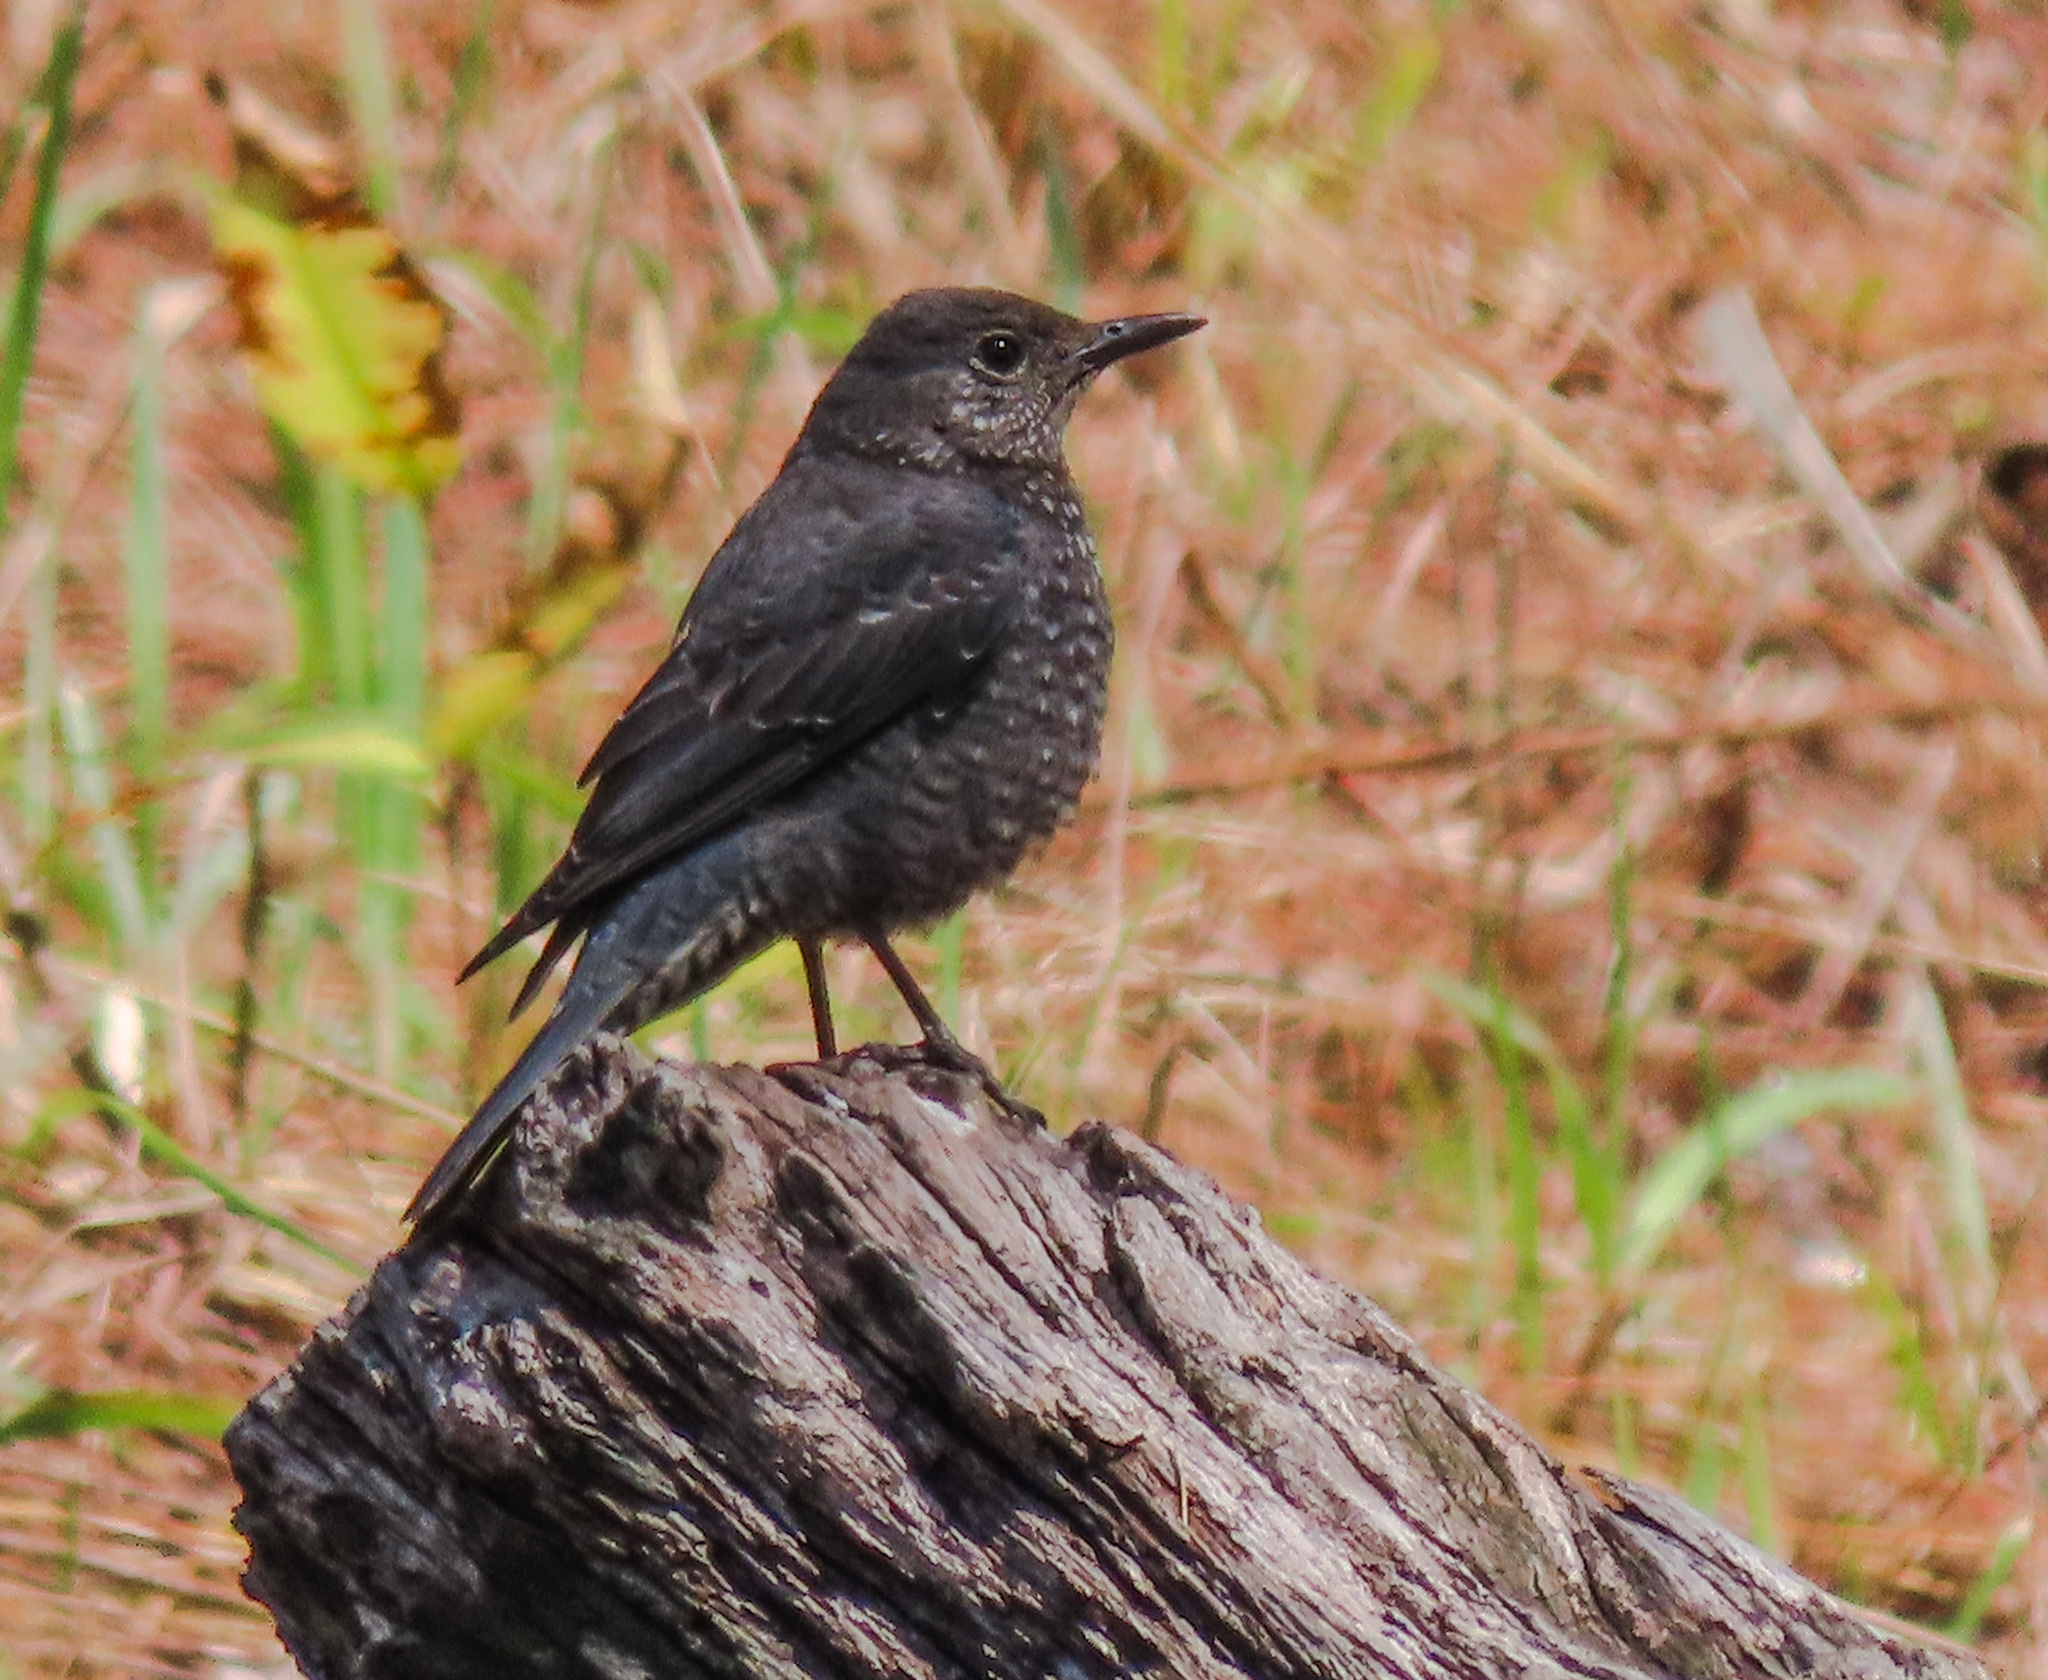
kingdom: Animalia
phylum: Chordata
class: Aves
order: Passeriformes
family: Muscicapidae
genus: Monticola
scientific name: Monticola solitarius
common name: Blue rock thrush
